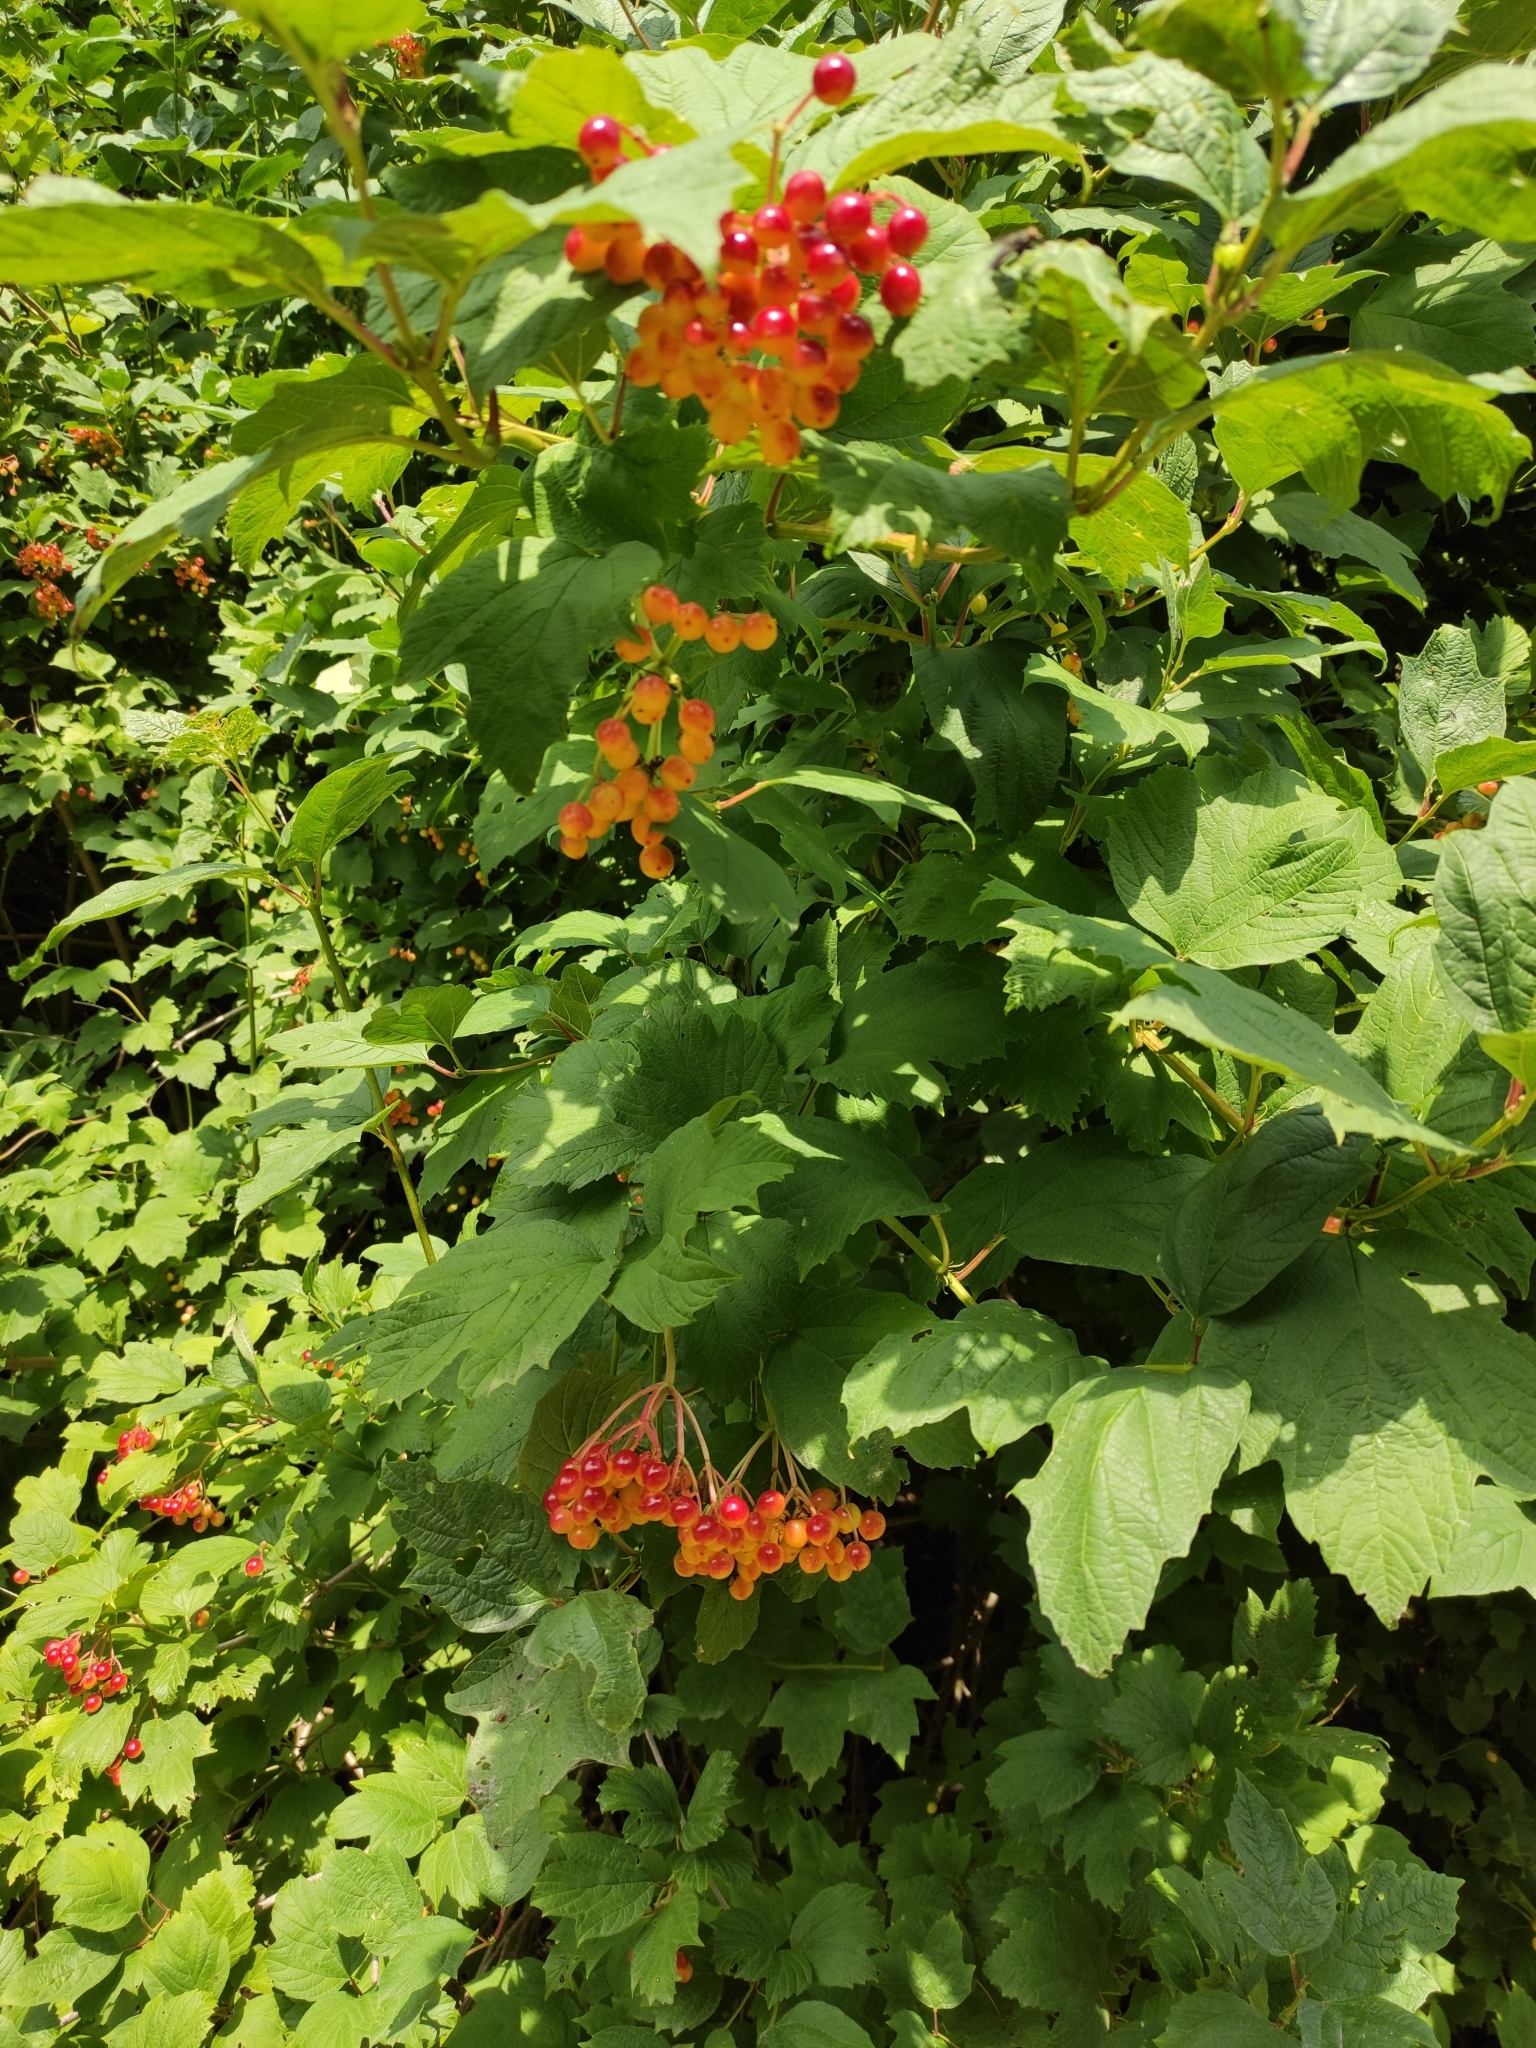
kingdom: Plantae
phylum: Tracheophyta
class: Magnoliopsida
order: Dipsacales
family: Viburnaceae
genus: Viburnum
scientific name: Viburnum opulus
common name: Guelder-rose
